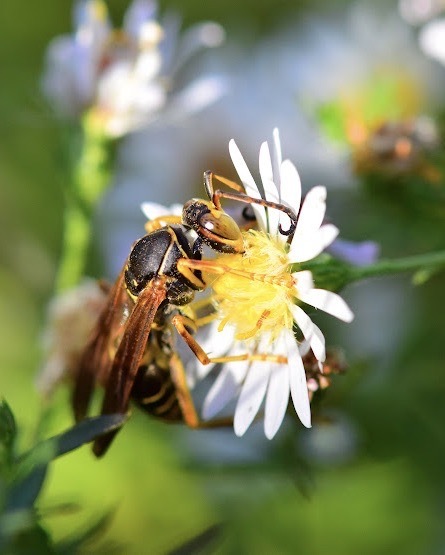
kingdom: Animalia
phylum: Arthropoda
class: Insecta
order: Hymenoptera
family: Eumenidae
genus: Polistes
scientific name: Polistes fuscatus
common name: Dark paper wasp
